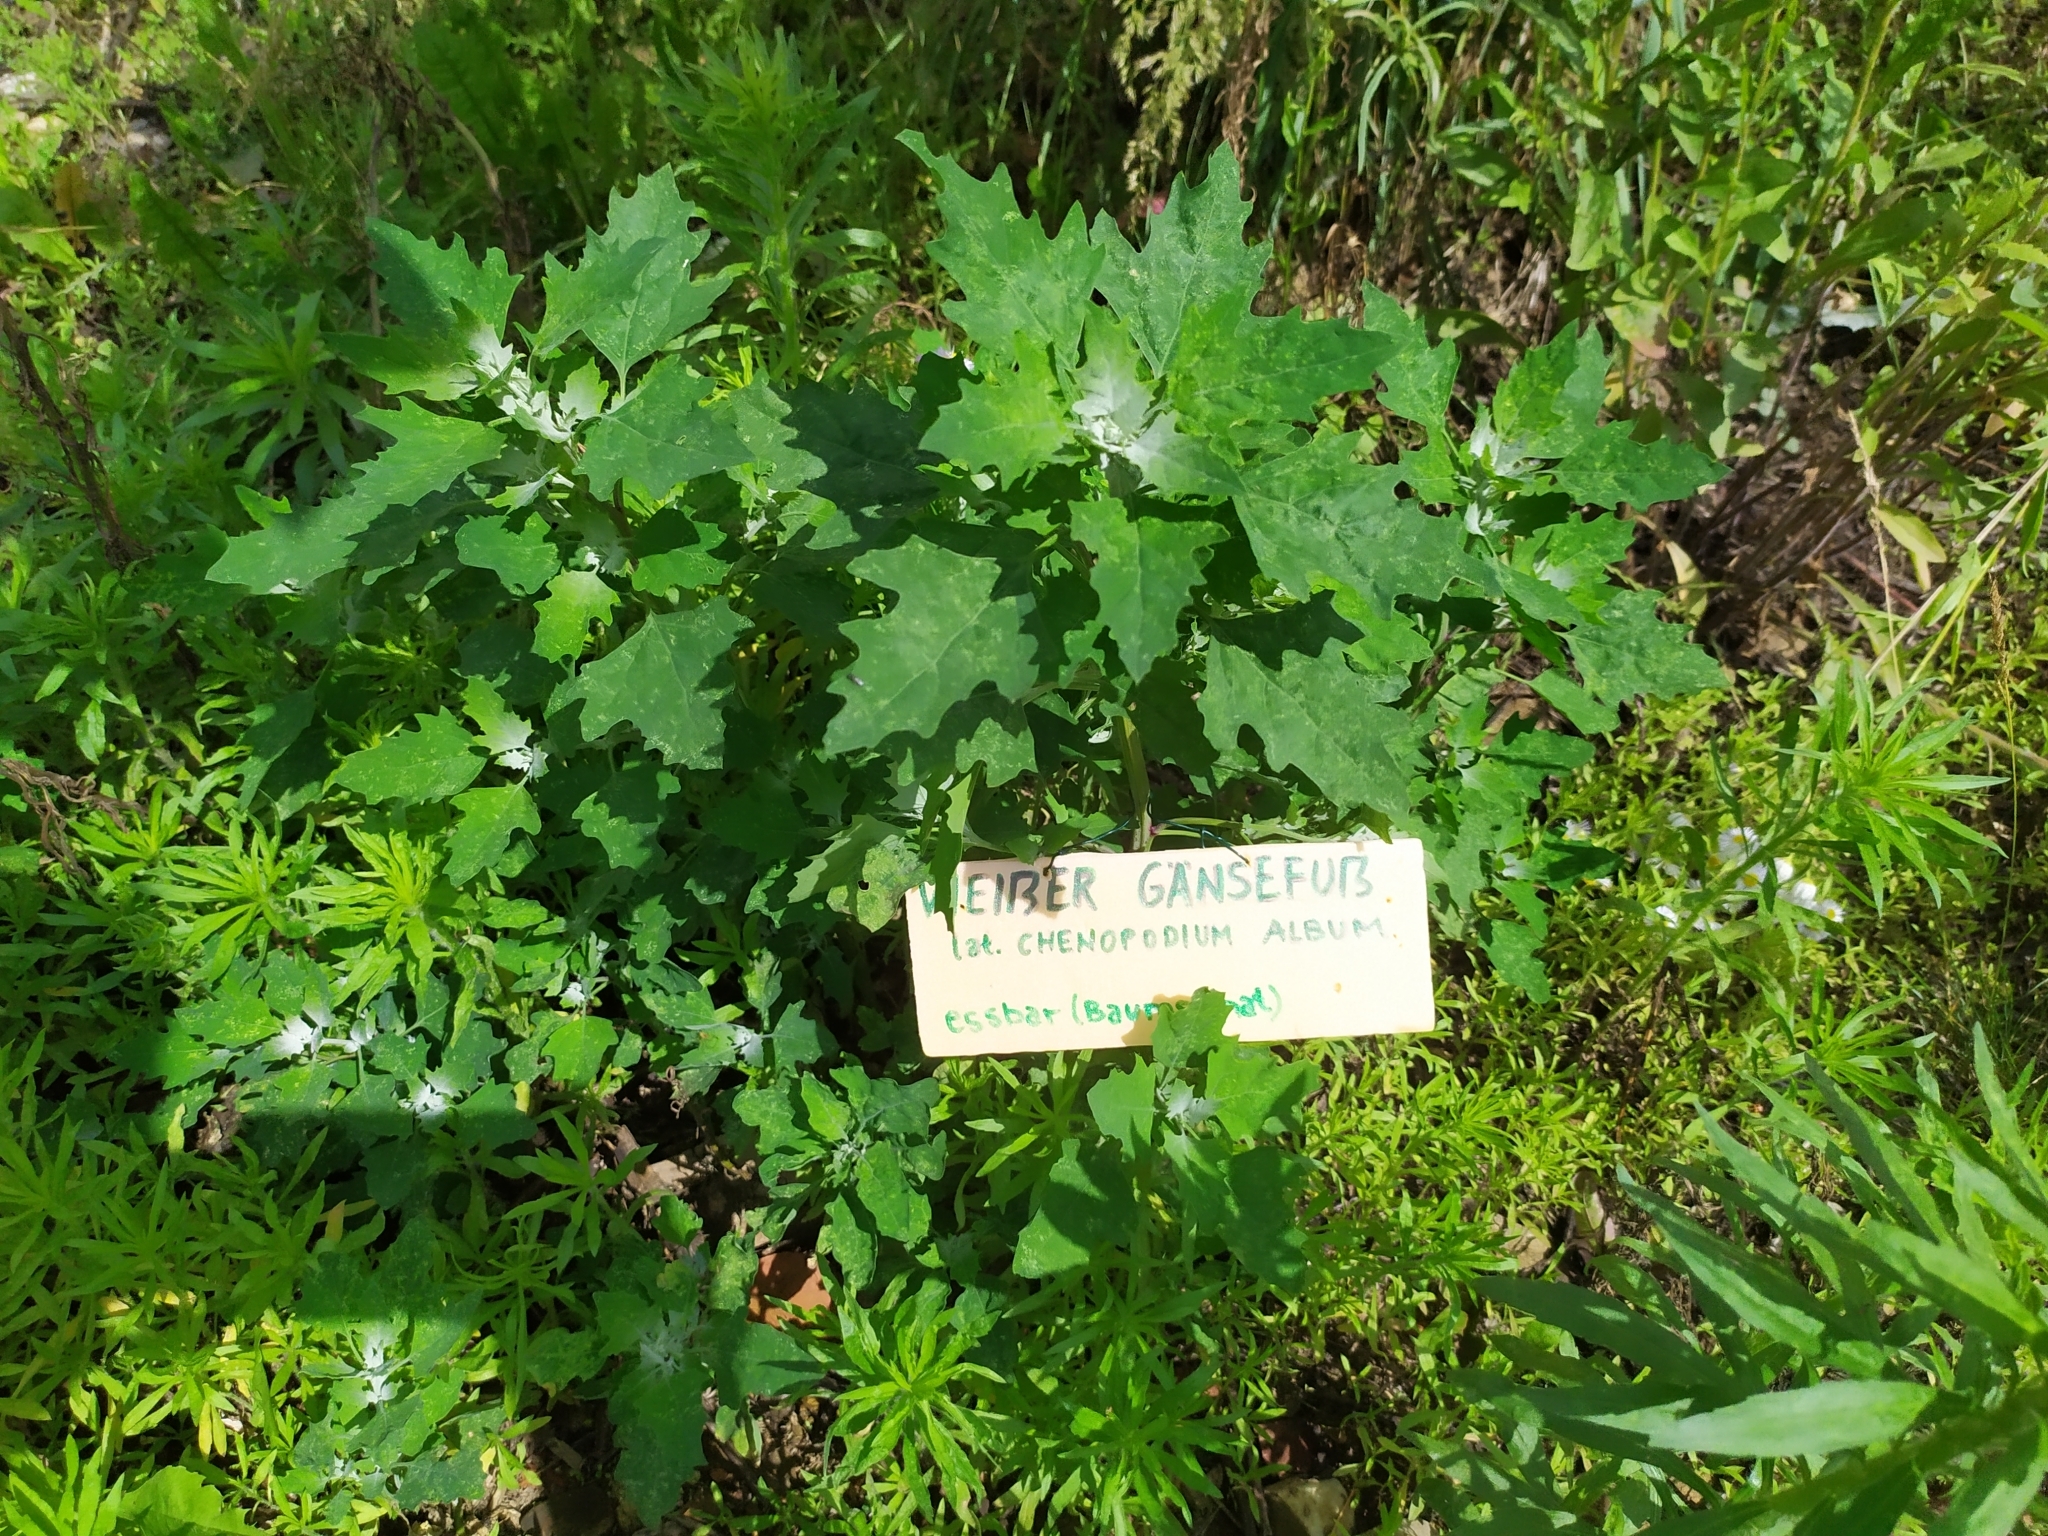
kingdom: Plantae
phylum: Tracheophyta
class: Magnoliopsida
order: Caryophyllales
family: Amaranthaceae
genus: Chenopodium
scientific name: Chenopodium album
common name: Fat-hen
